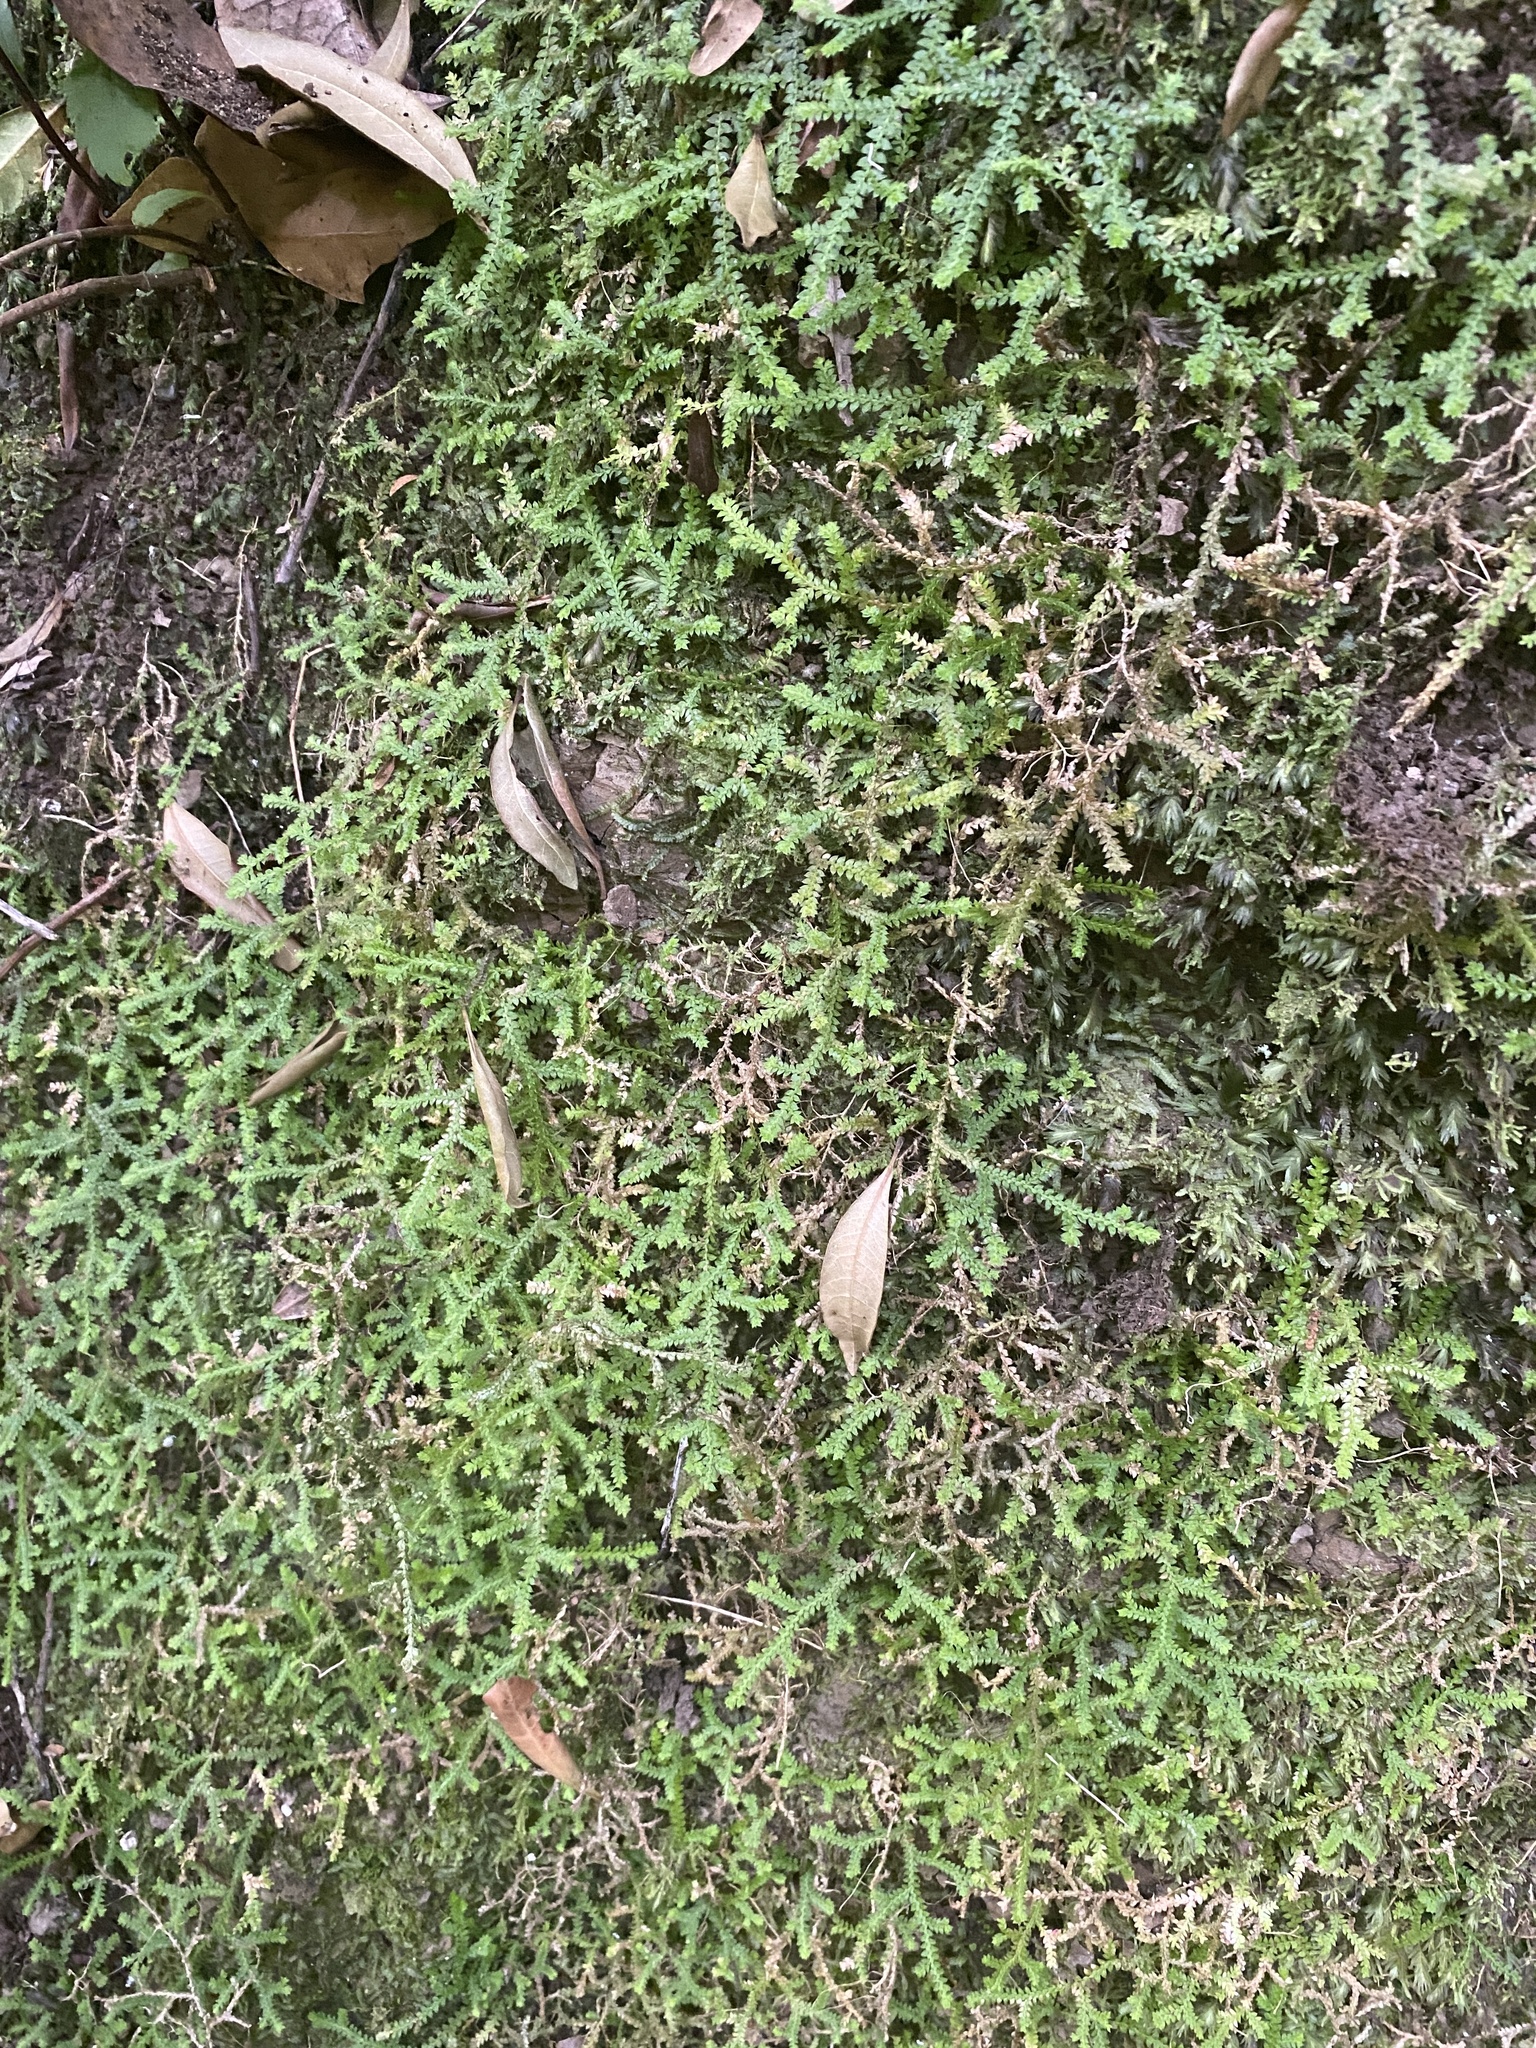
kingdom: Plantae
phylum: Tracheophyta
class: Lycopodiopsida
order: Selaginellales
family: Selaginellaceae
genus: Selaginella
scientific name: Selaginella denticulata
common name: Toothed-leaved clubmoss
